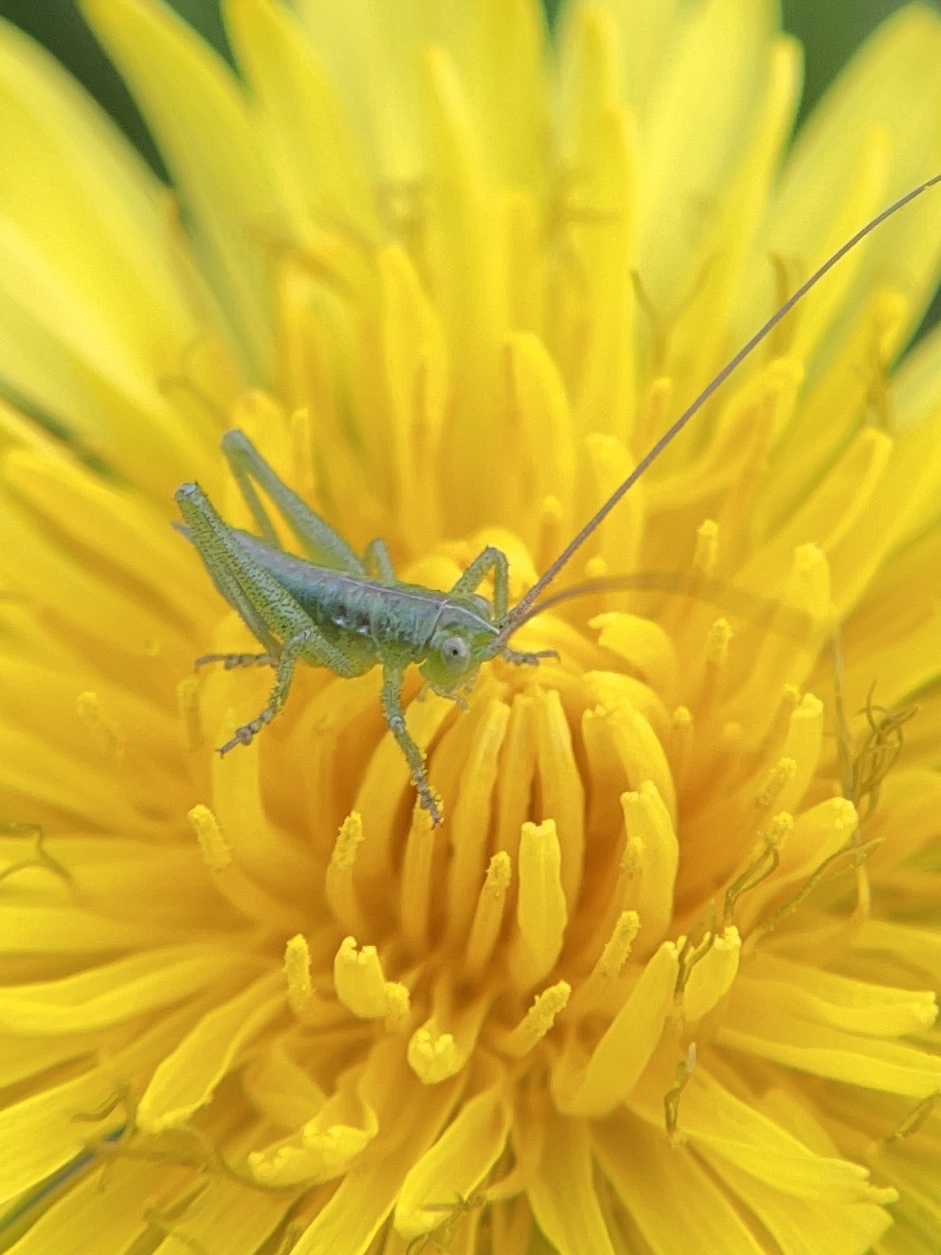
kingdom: Animalia
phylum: Arthropoda
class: Insecta
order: Orthoptera
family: Tettigoniidae
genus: Tettigonia
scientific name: Tettigonia viridissima
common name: Great green bush-cricket
